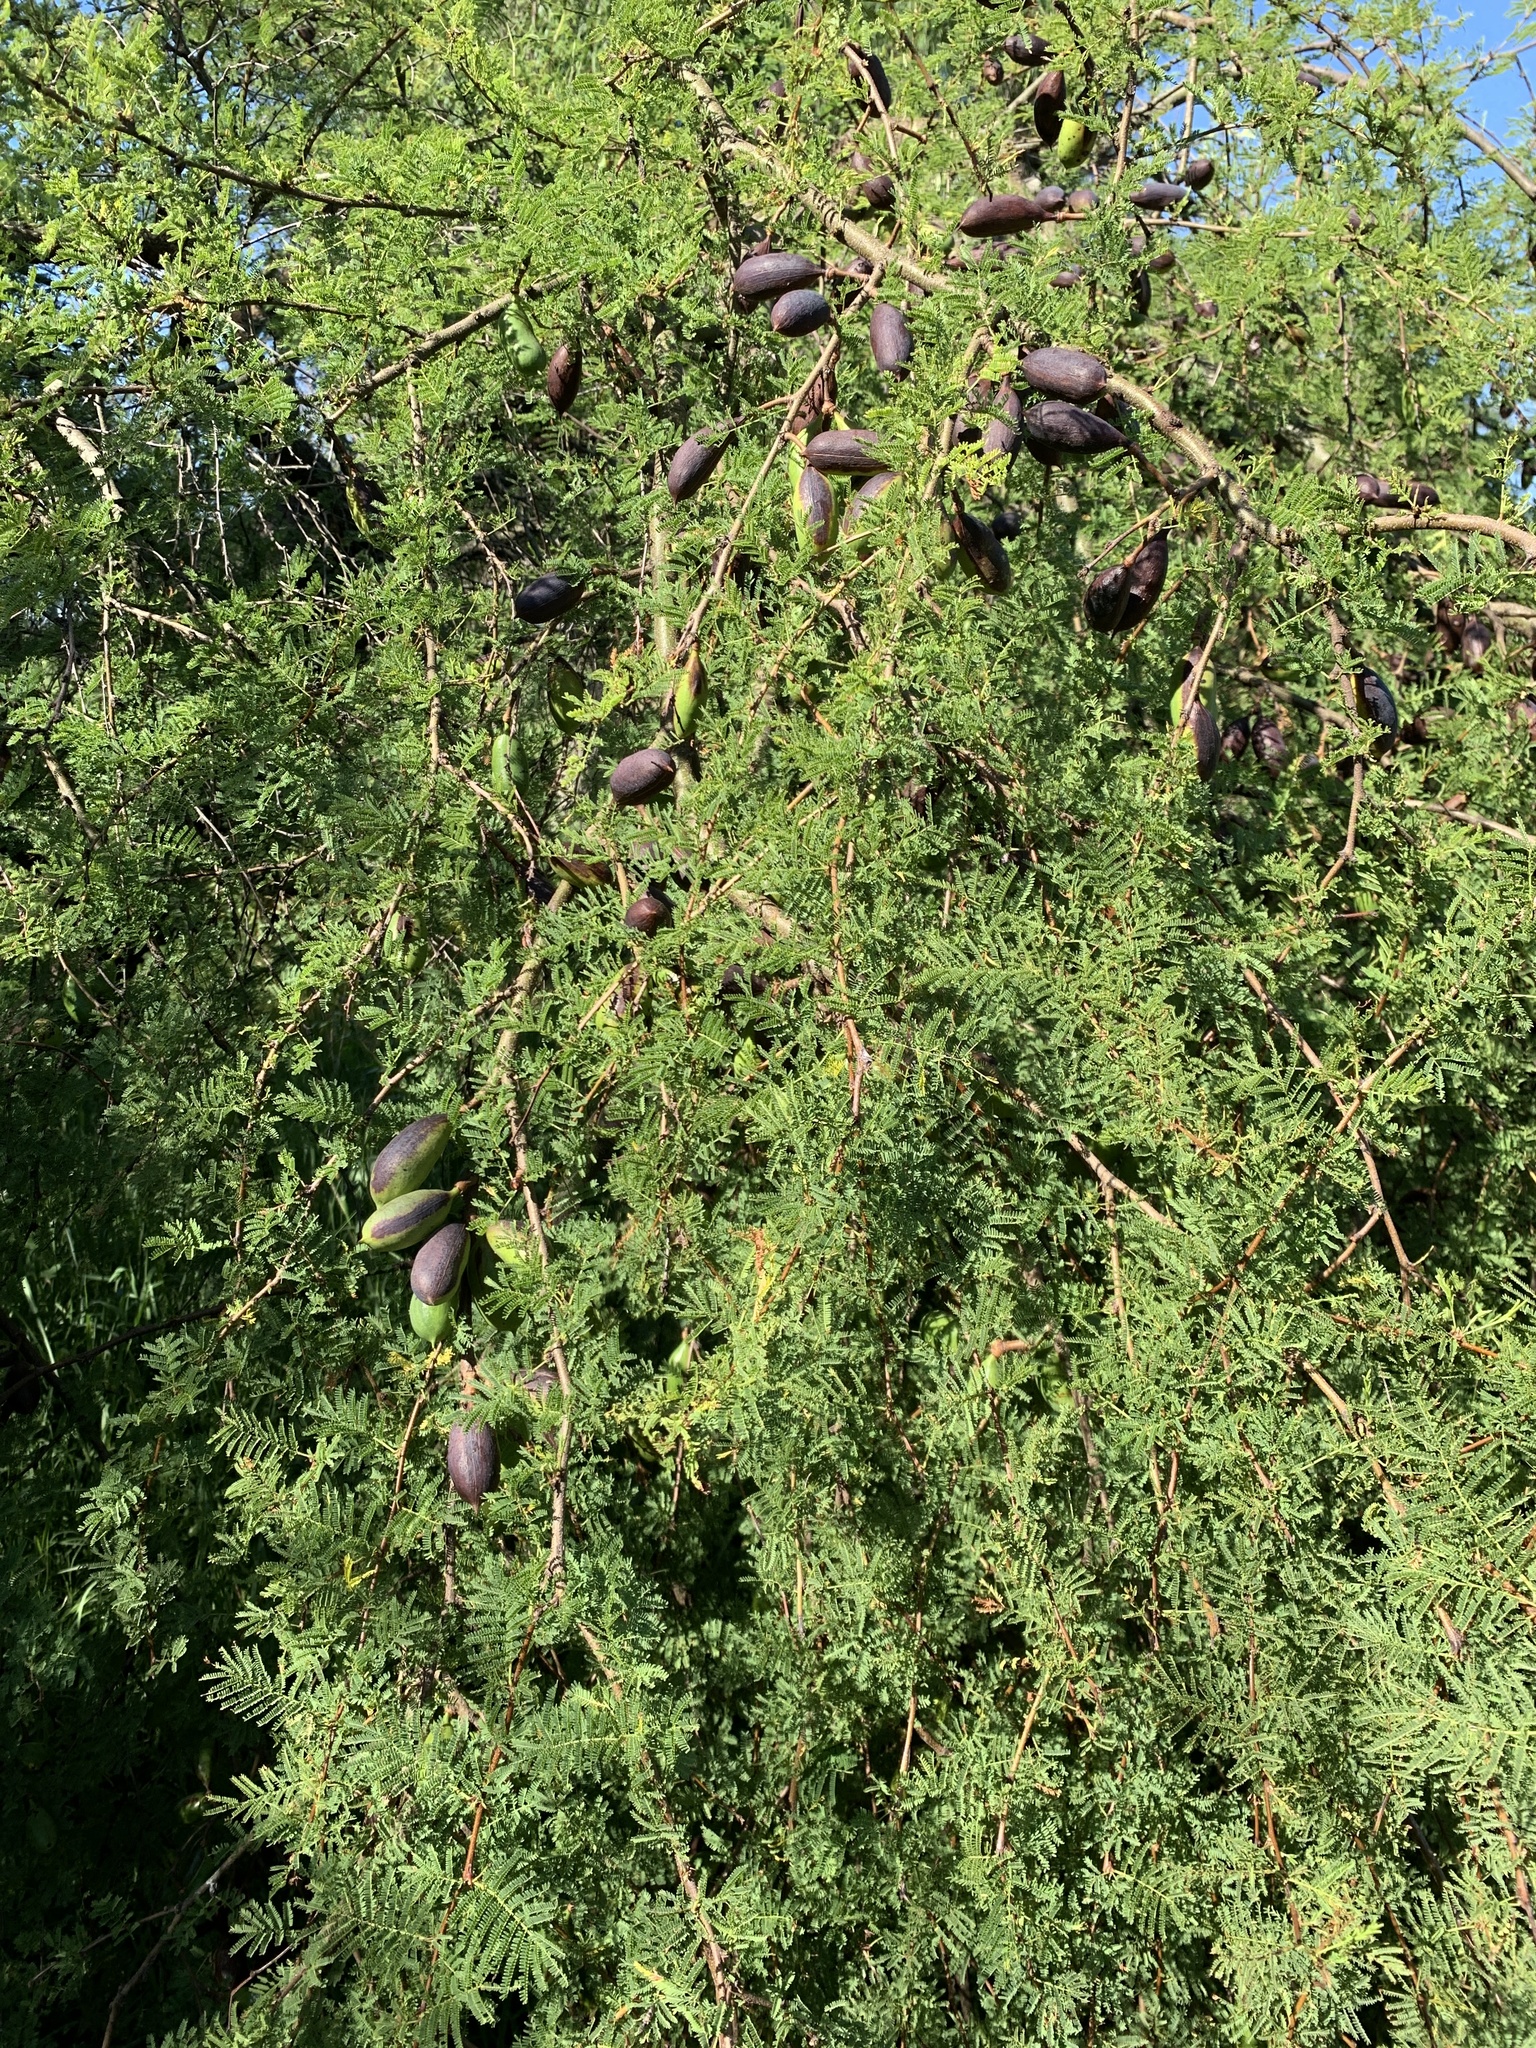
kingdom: Plantae
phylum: Tracheophyta
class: Magnoliopsida
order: Fabales
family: Fabaceae
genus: Vachellia
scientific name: Vachellia caven
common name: Roman cassie
